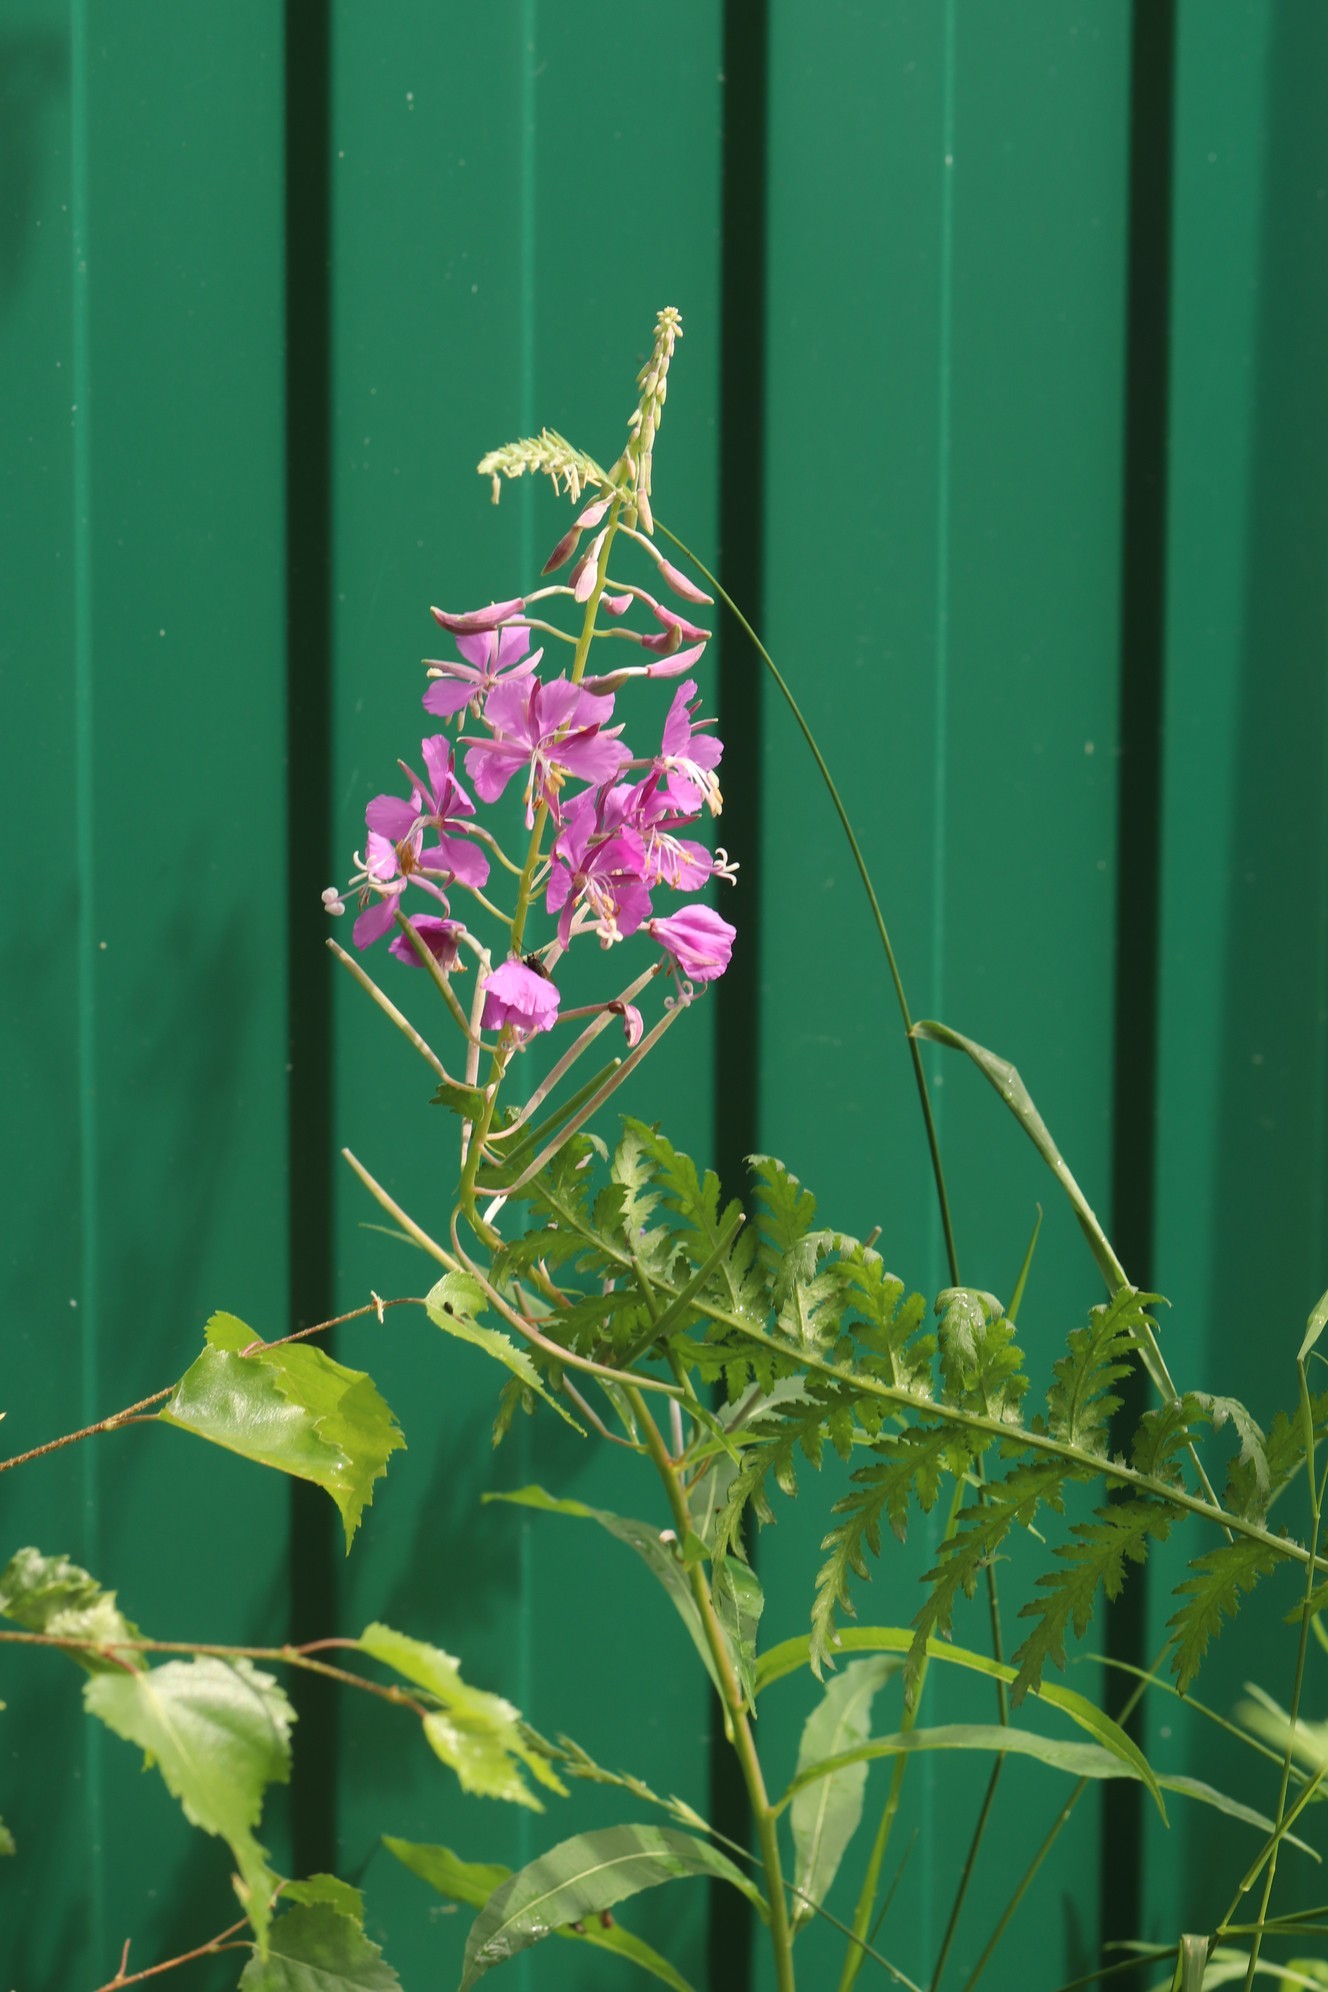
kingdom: Plantae
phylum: Tracheophyta
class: Magnoliopsida
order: Myrtales
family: Onagraceae
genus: Chamaenerion
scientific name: Chamaenerion angustifolium
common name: Fireweed
